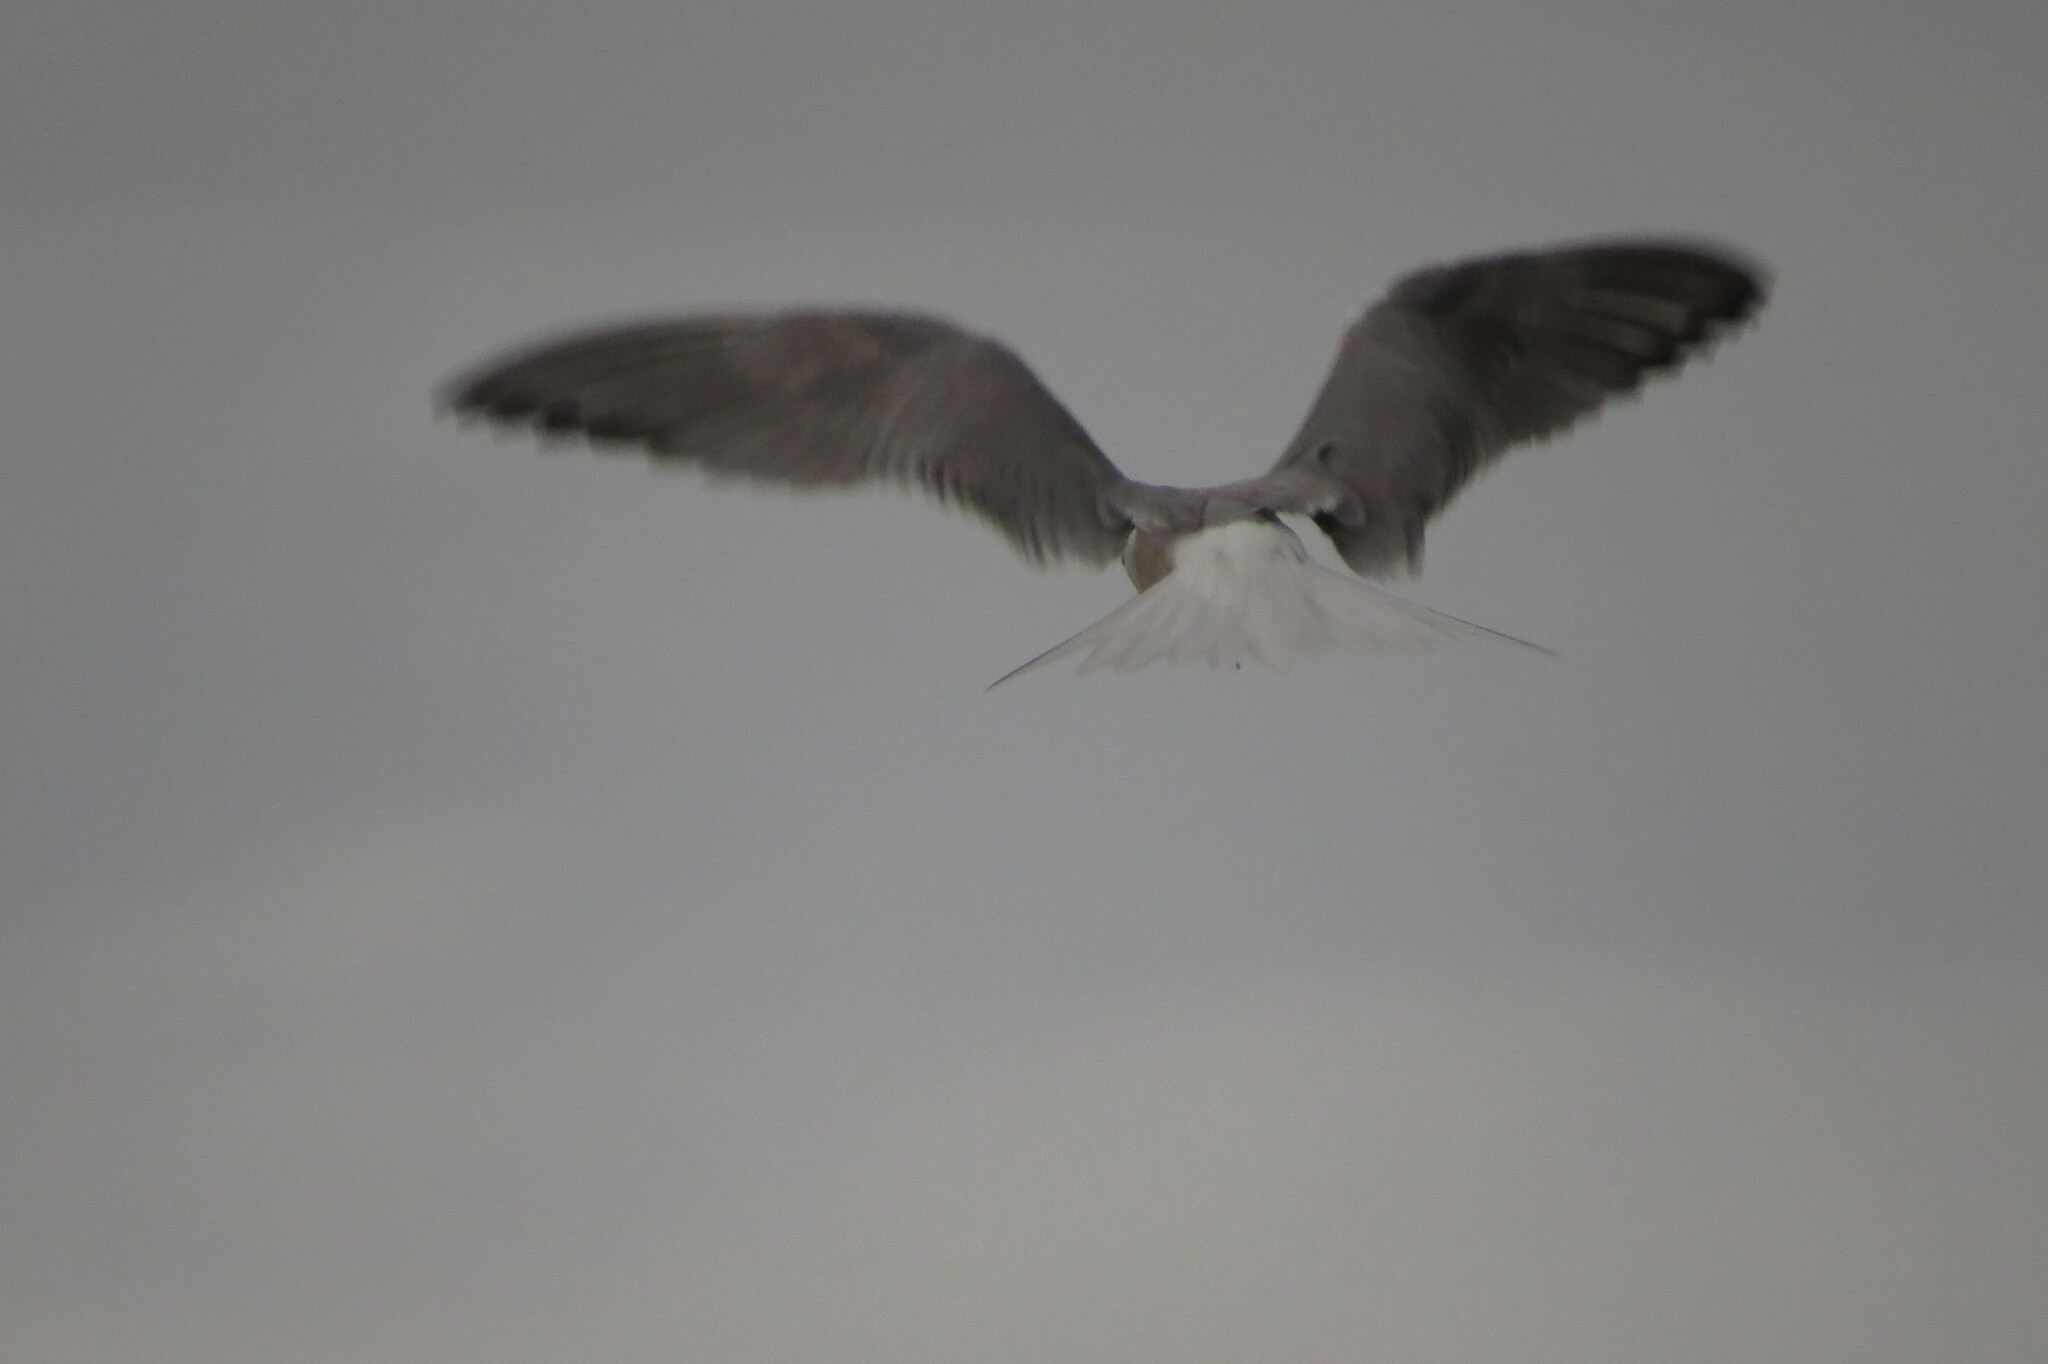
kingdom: Animalia
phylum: Chordata
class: Aves
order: Charadriiformes
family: Laridae
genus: Sterna
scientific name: Sterna hirundo
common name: Common tern
